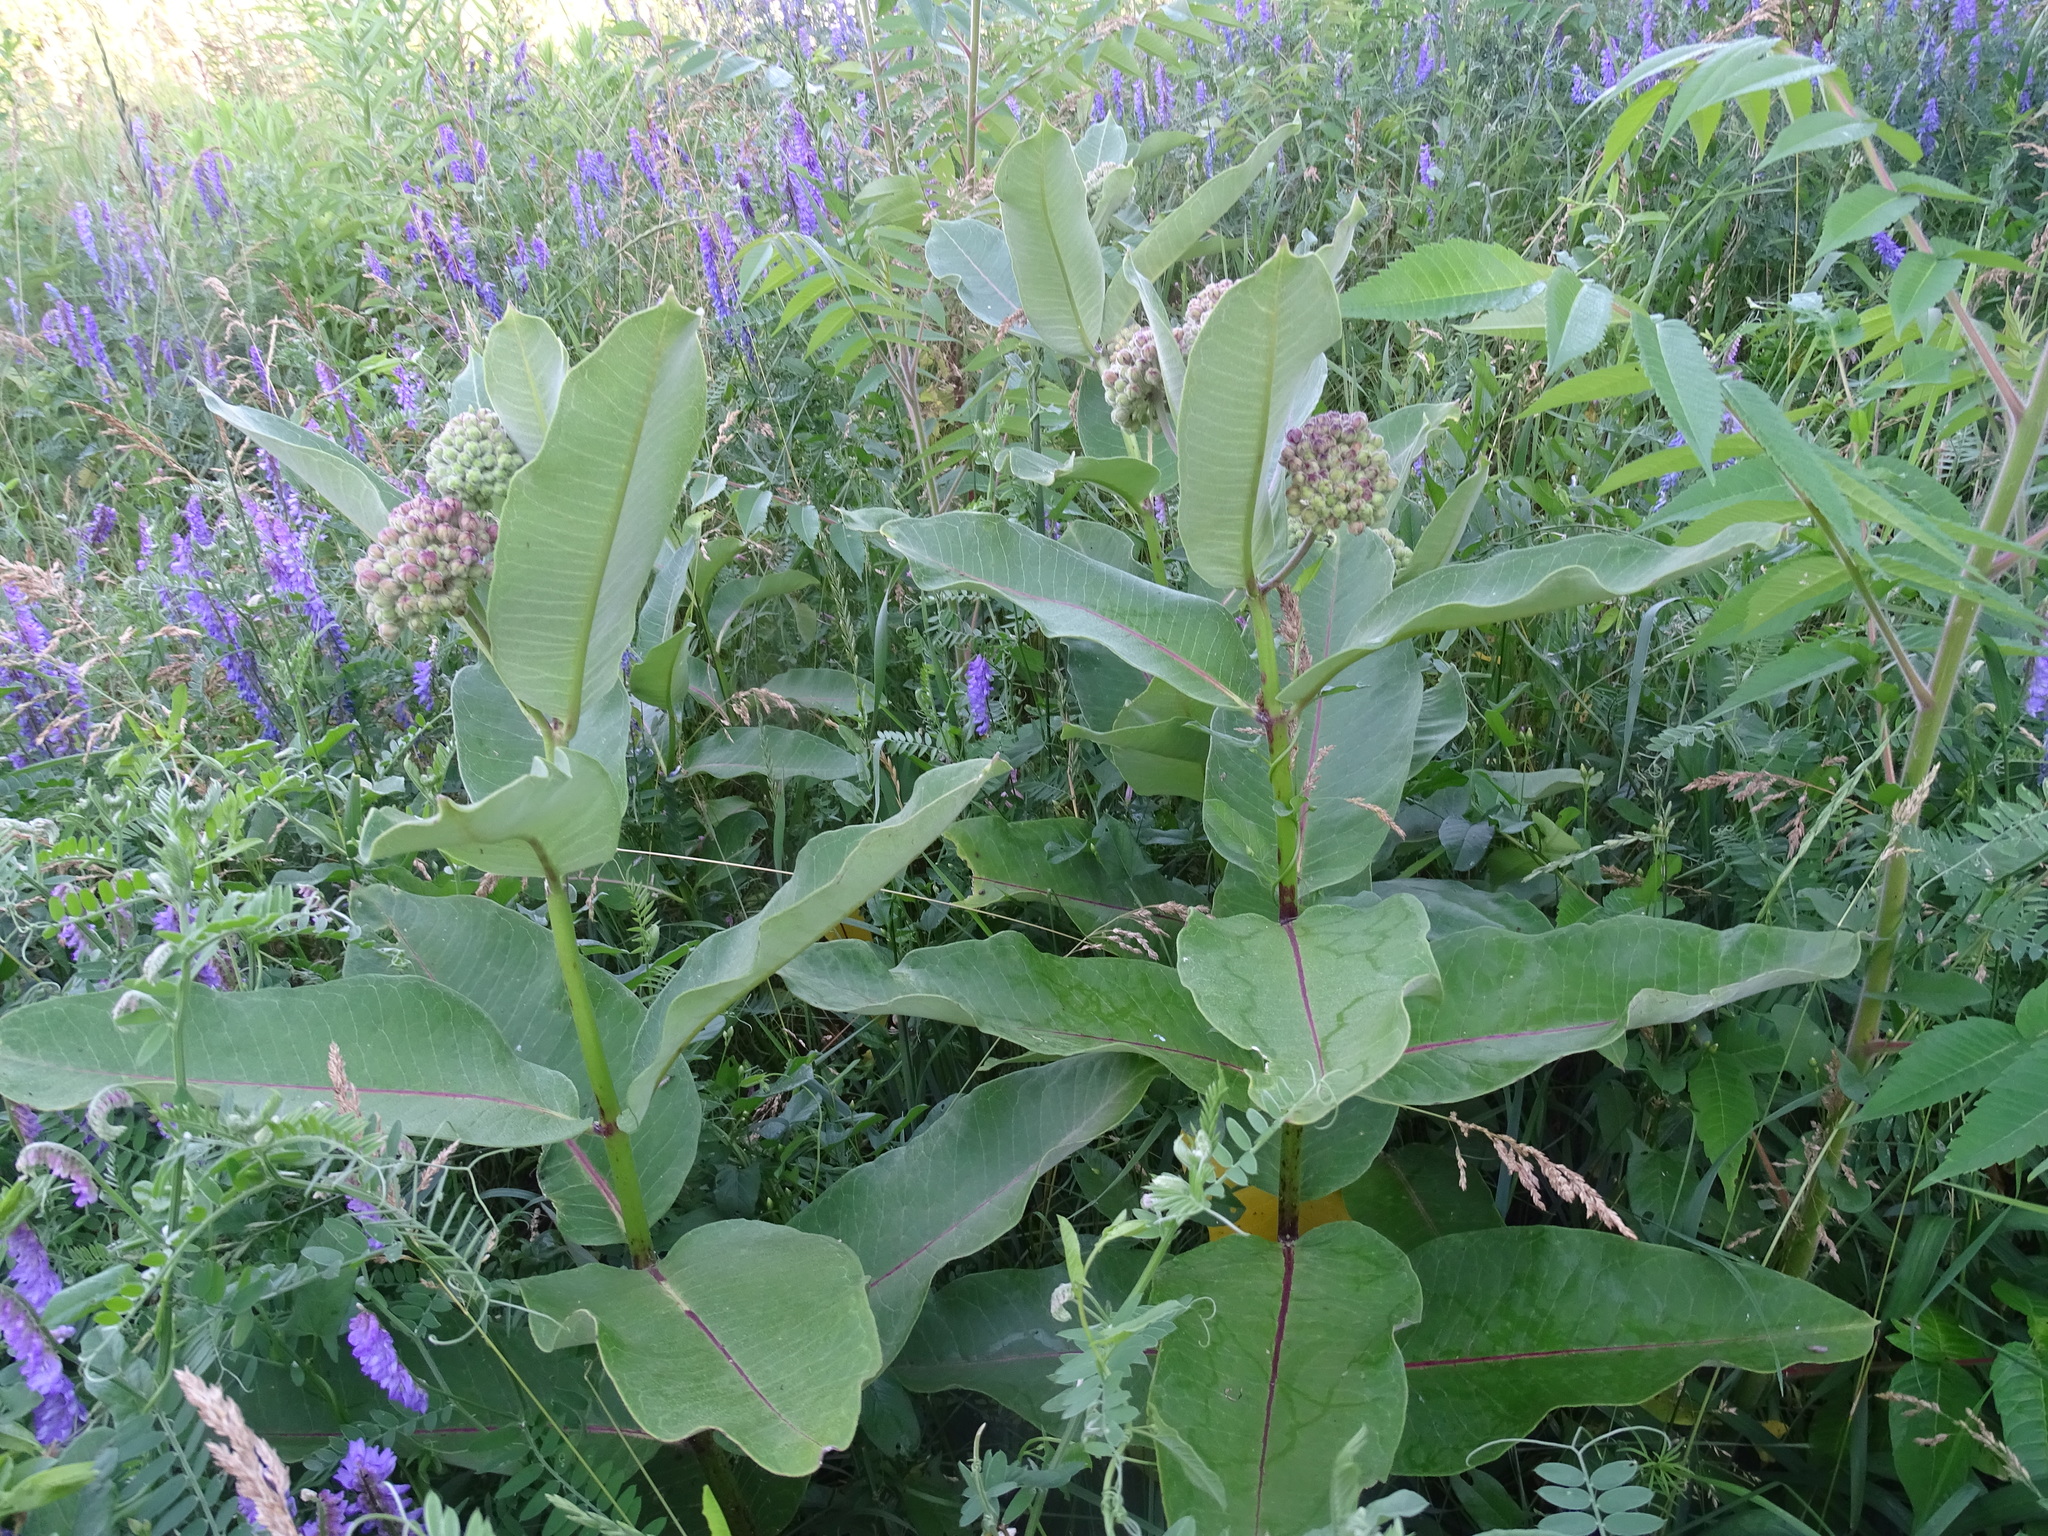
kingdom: Plantae
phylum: Tracheophyta
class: Magnoliopsida
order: Gentianales
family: Apocynaceae
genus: Asclepias
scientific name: Asclepias syriaca
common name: Common milkweed
